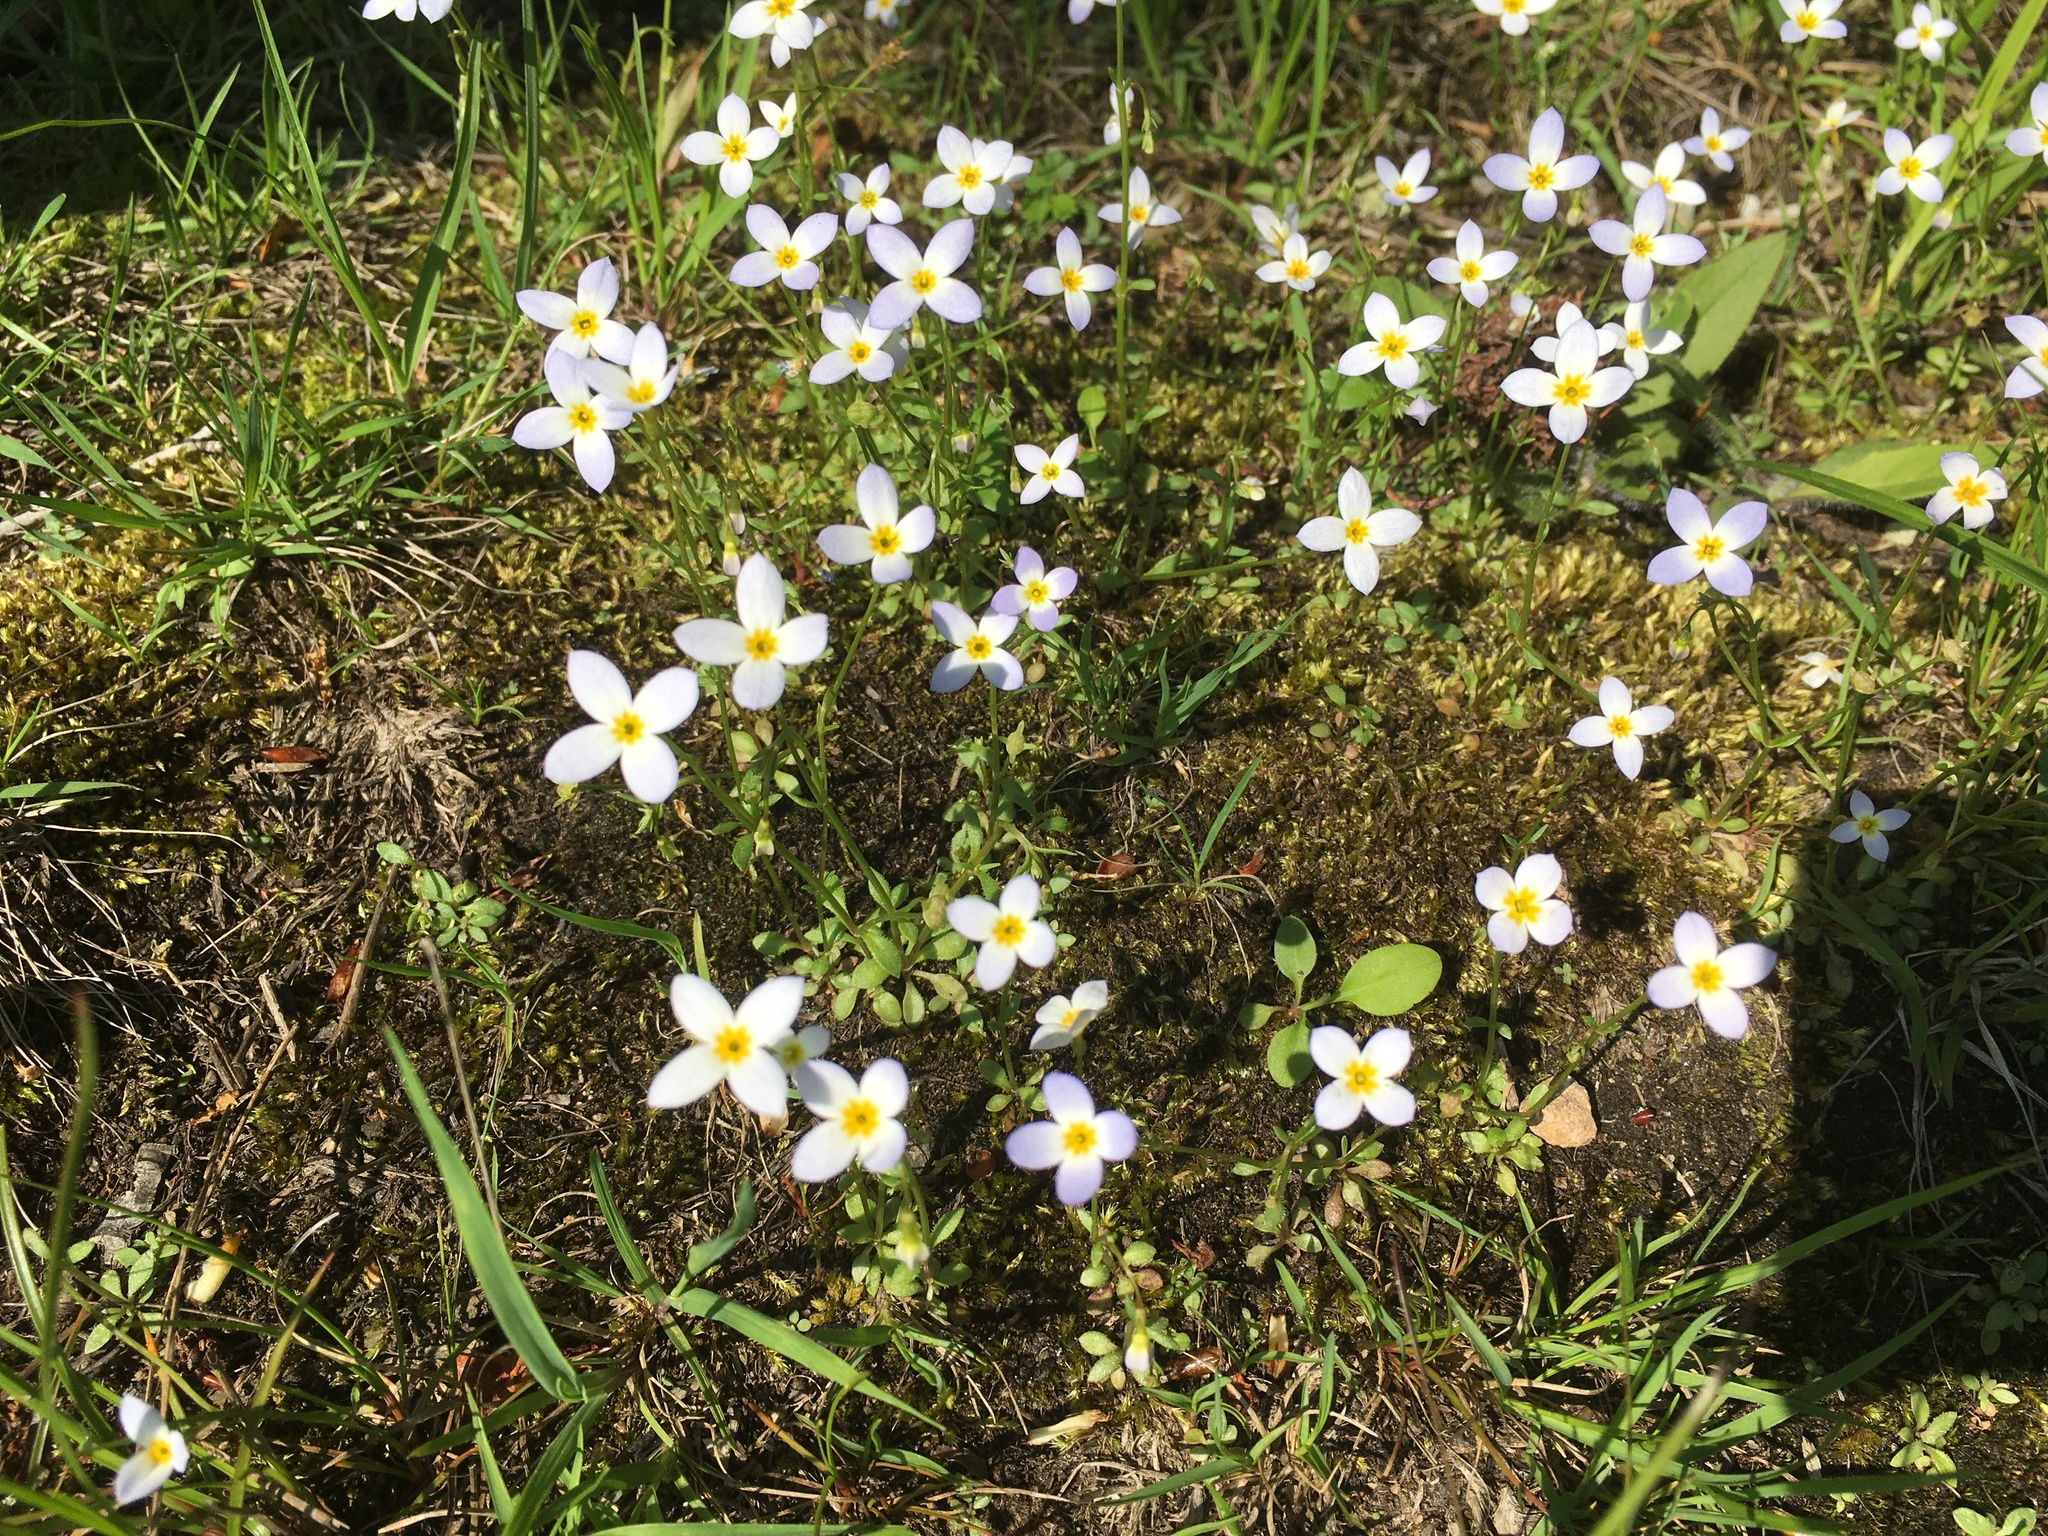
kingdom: Plantae
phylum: Tracheophyta
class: Magnoliopsida
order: Gentianales
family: Rubiaceae
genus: Houstonia
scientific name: Houstonia caerulea
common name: Bluets
